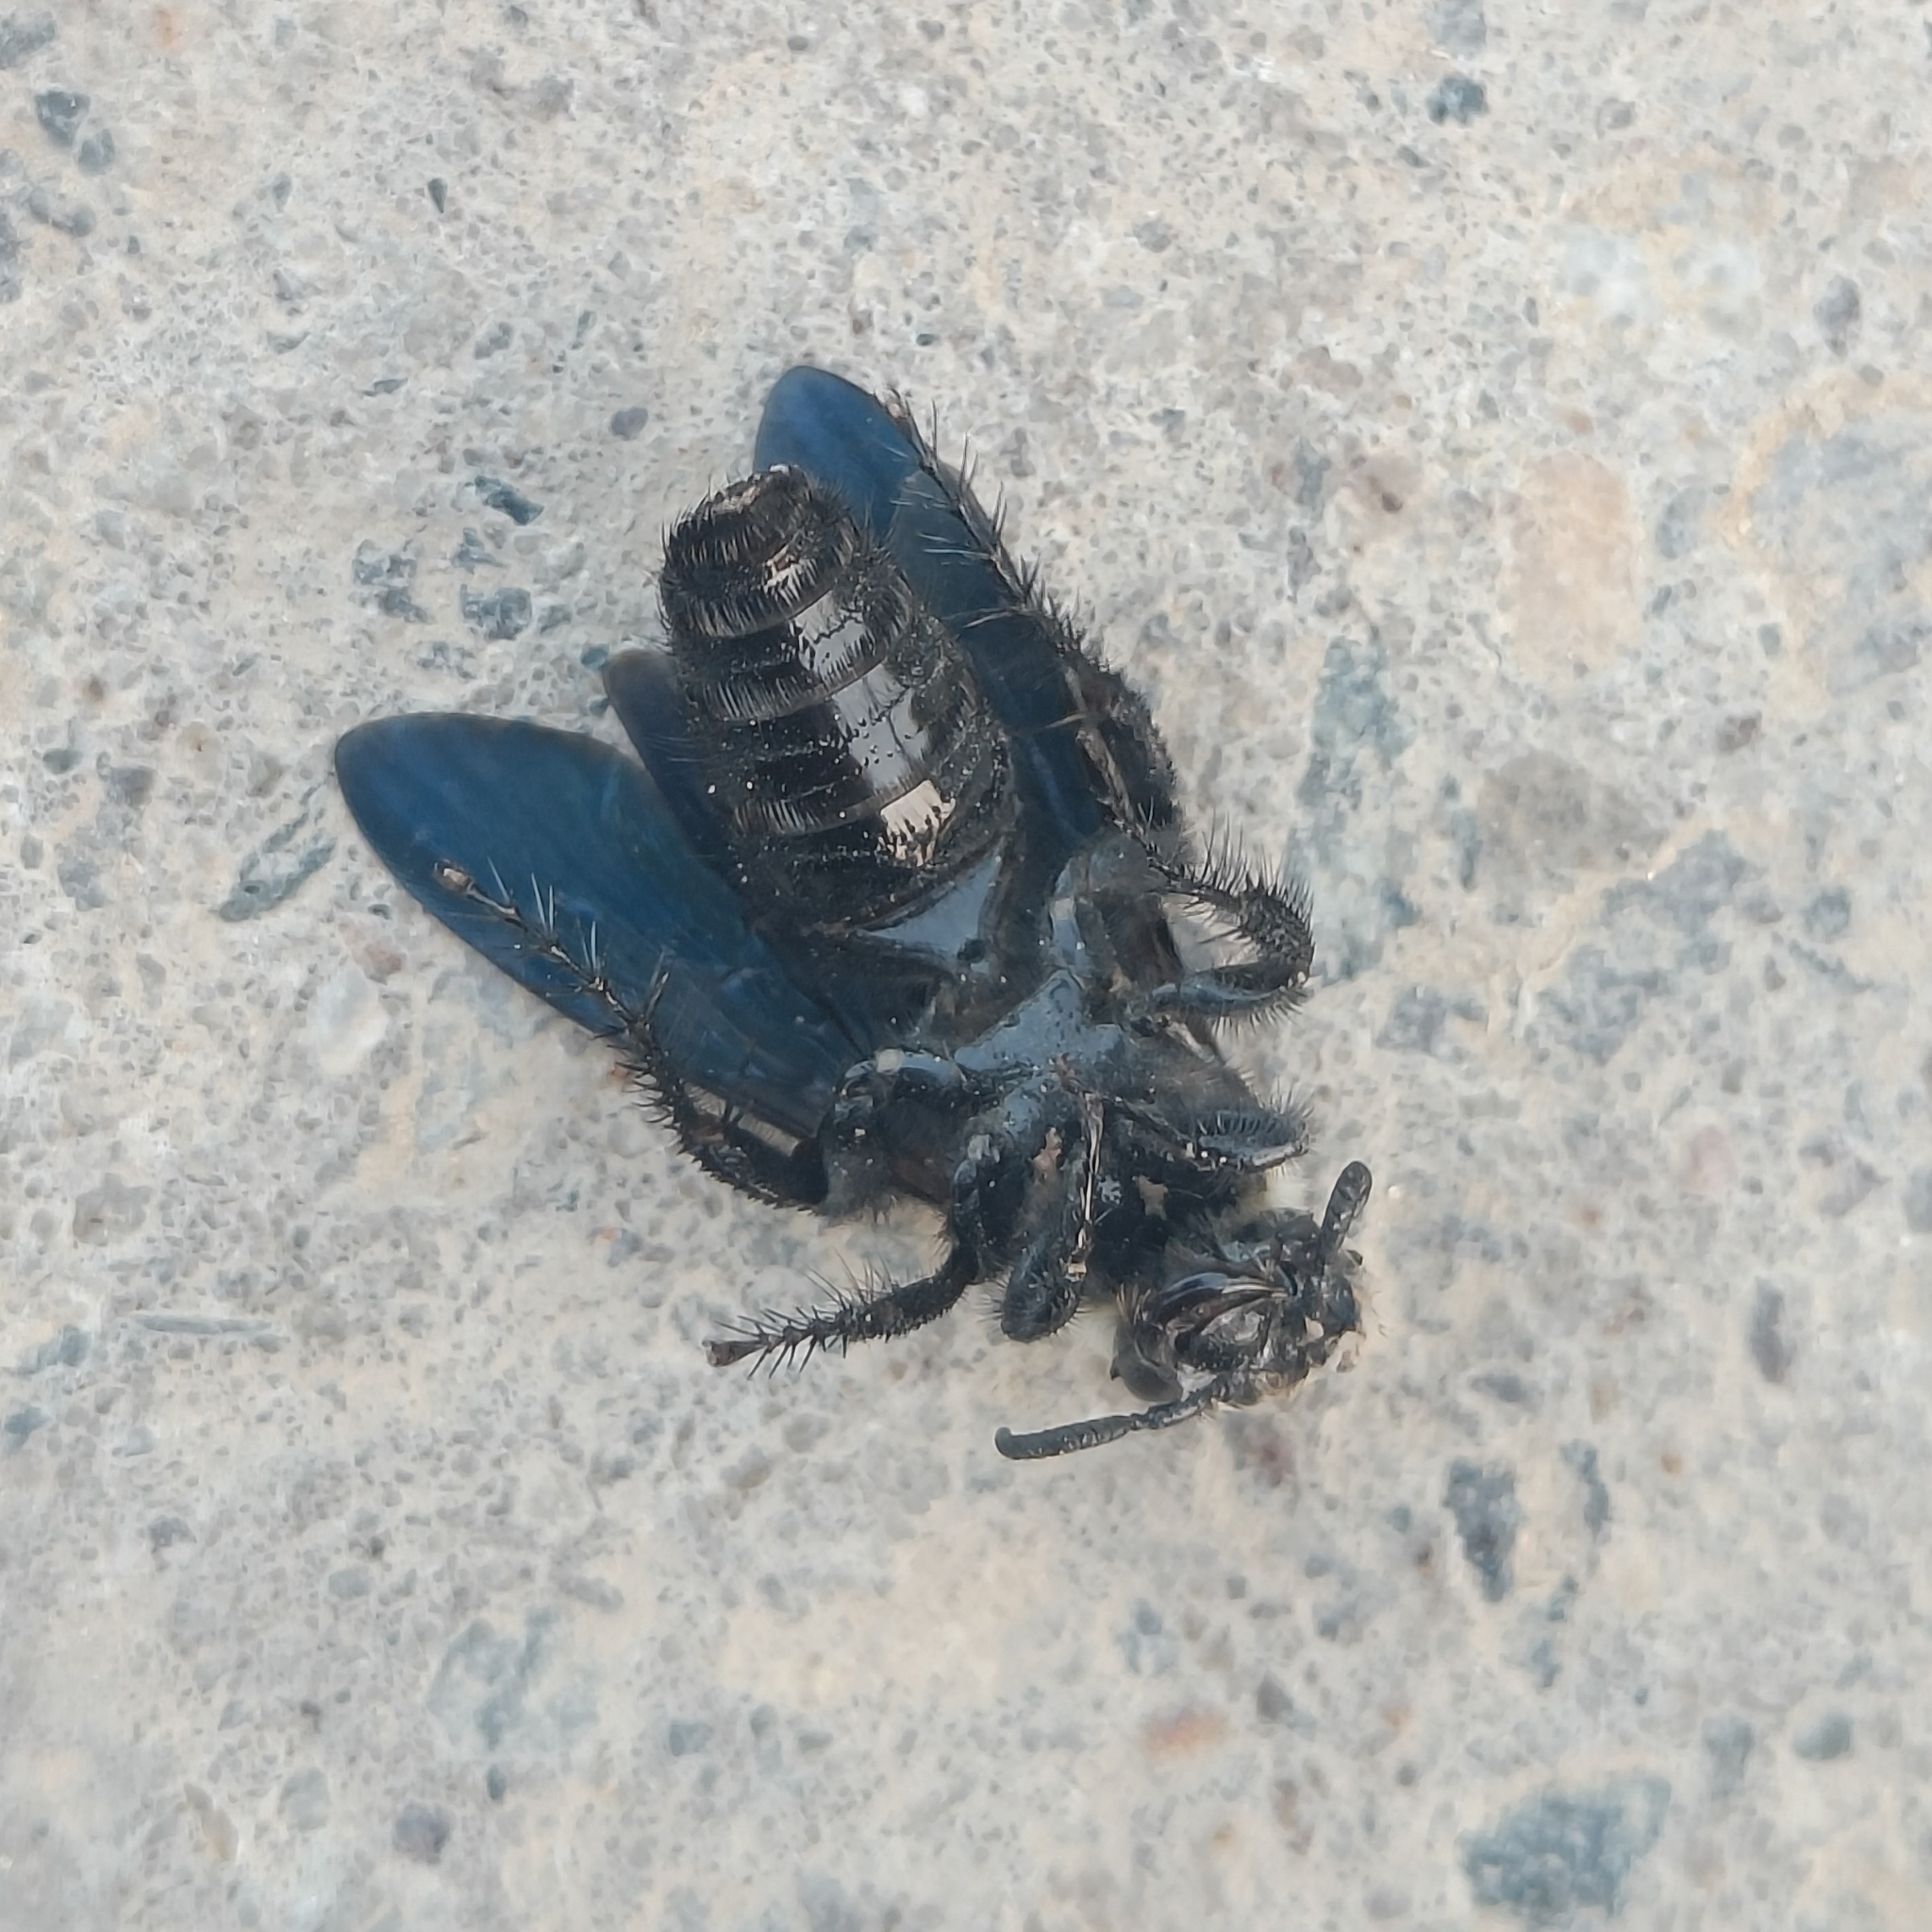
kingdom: Animalia
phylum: Arthropoda
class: Insecta
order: Hymenoptera
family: Scoliidae
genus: Campsomeriella
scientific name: Campsomeriella collaris
